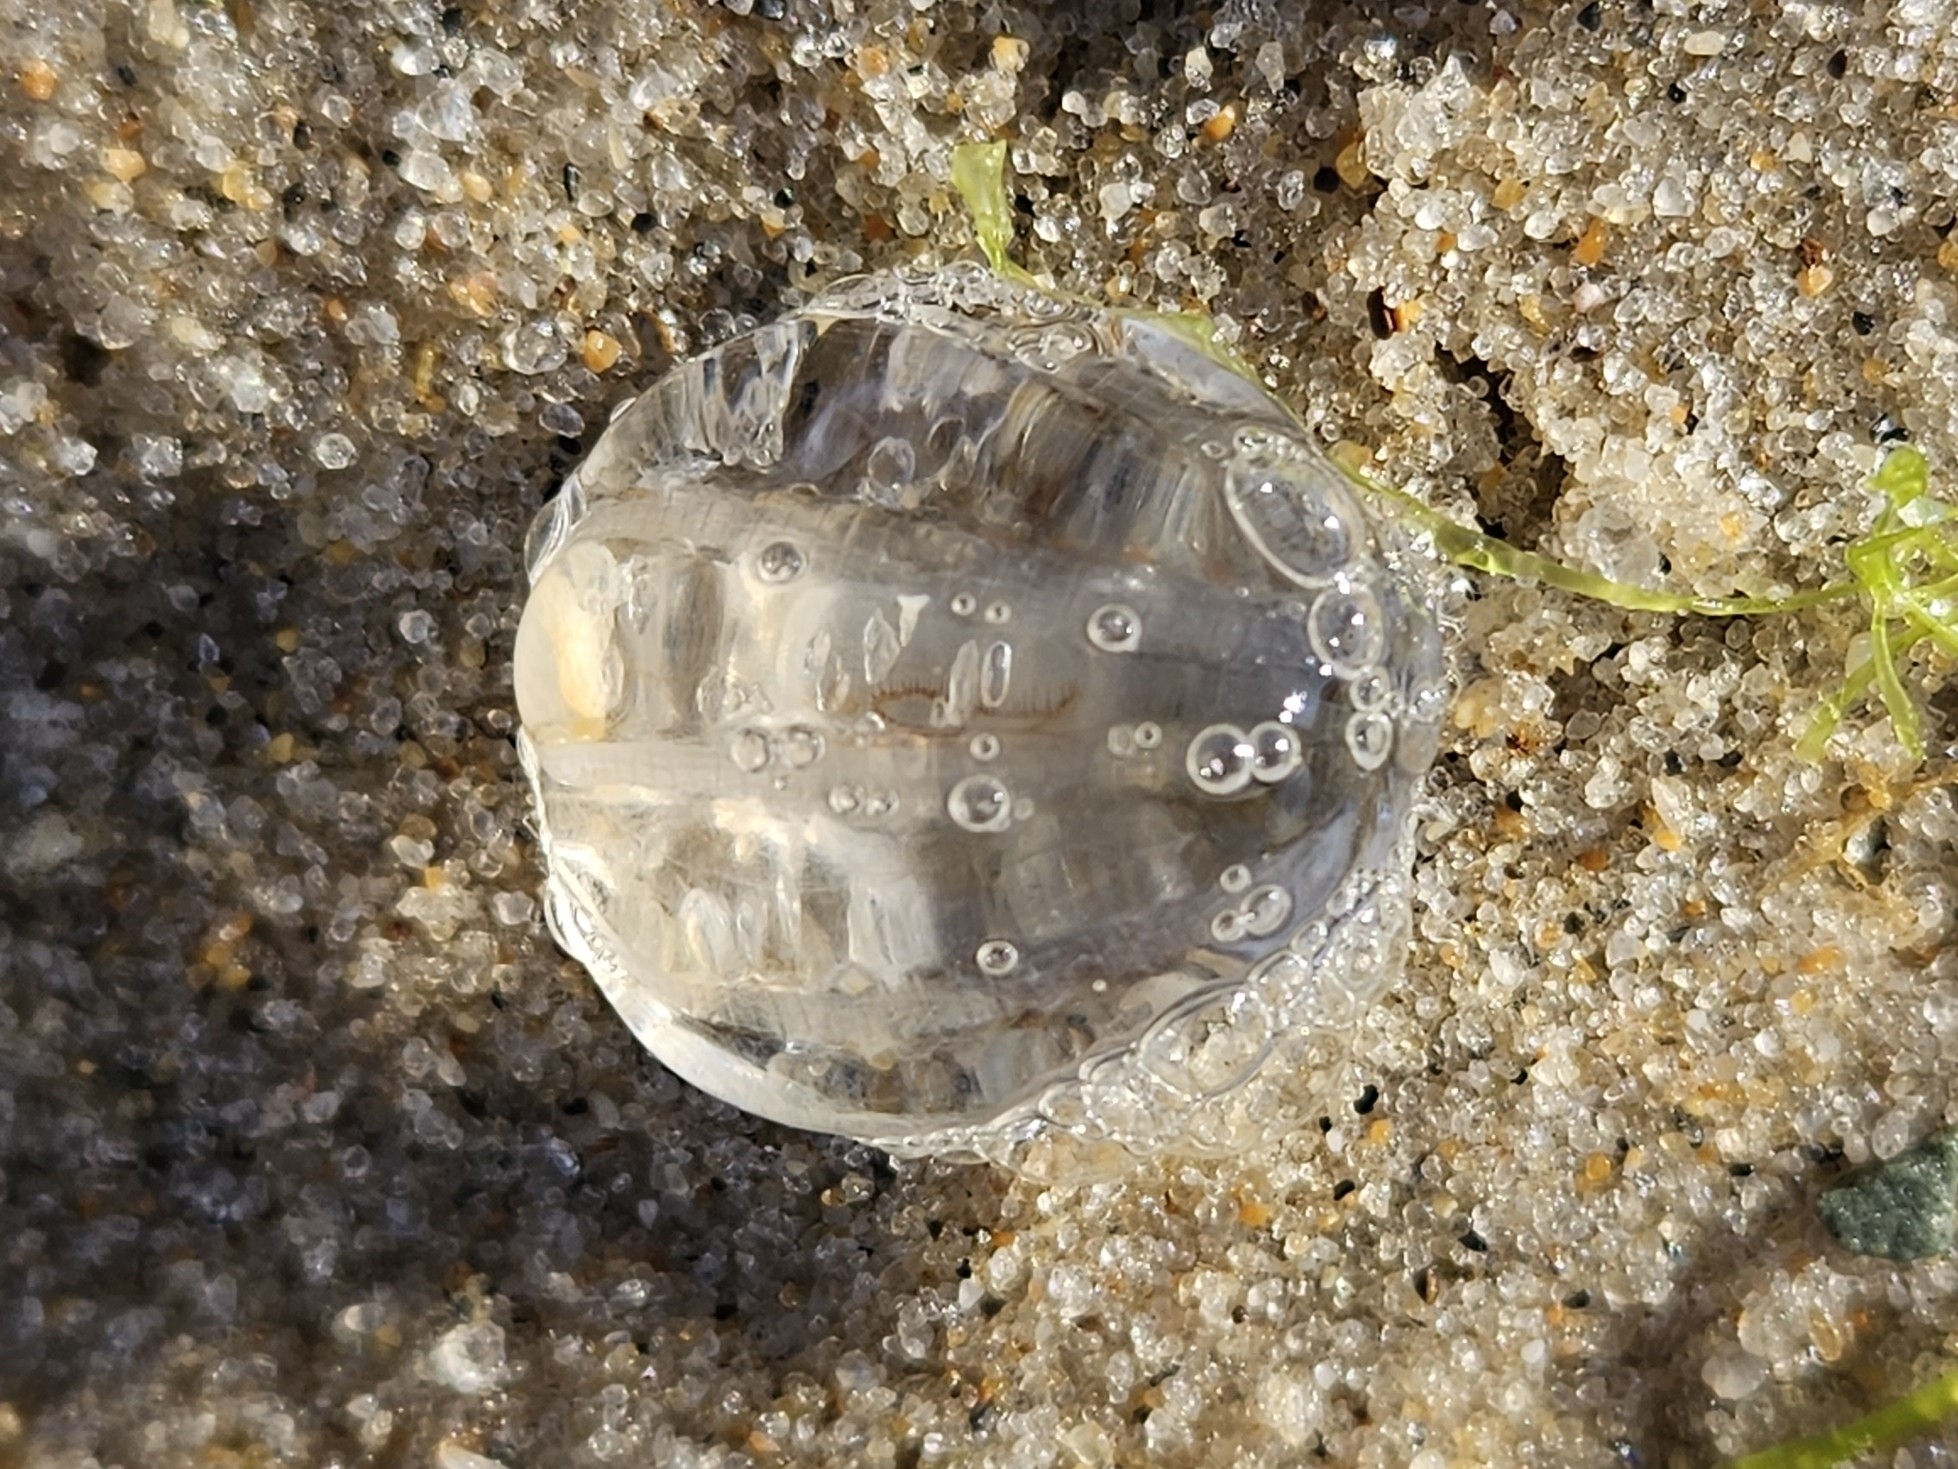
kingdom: Animalia
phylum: Ctenophora
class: Tentaculata
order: Cydippida
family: Pleurobrachiidae
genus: Pleurobrachia
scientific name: Pleurobrachia pileus
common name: Sea gooseberry
